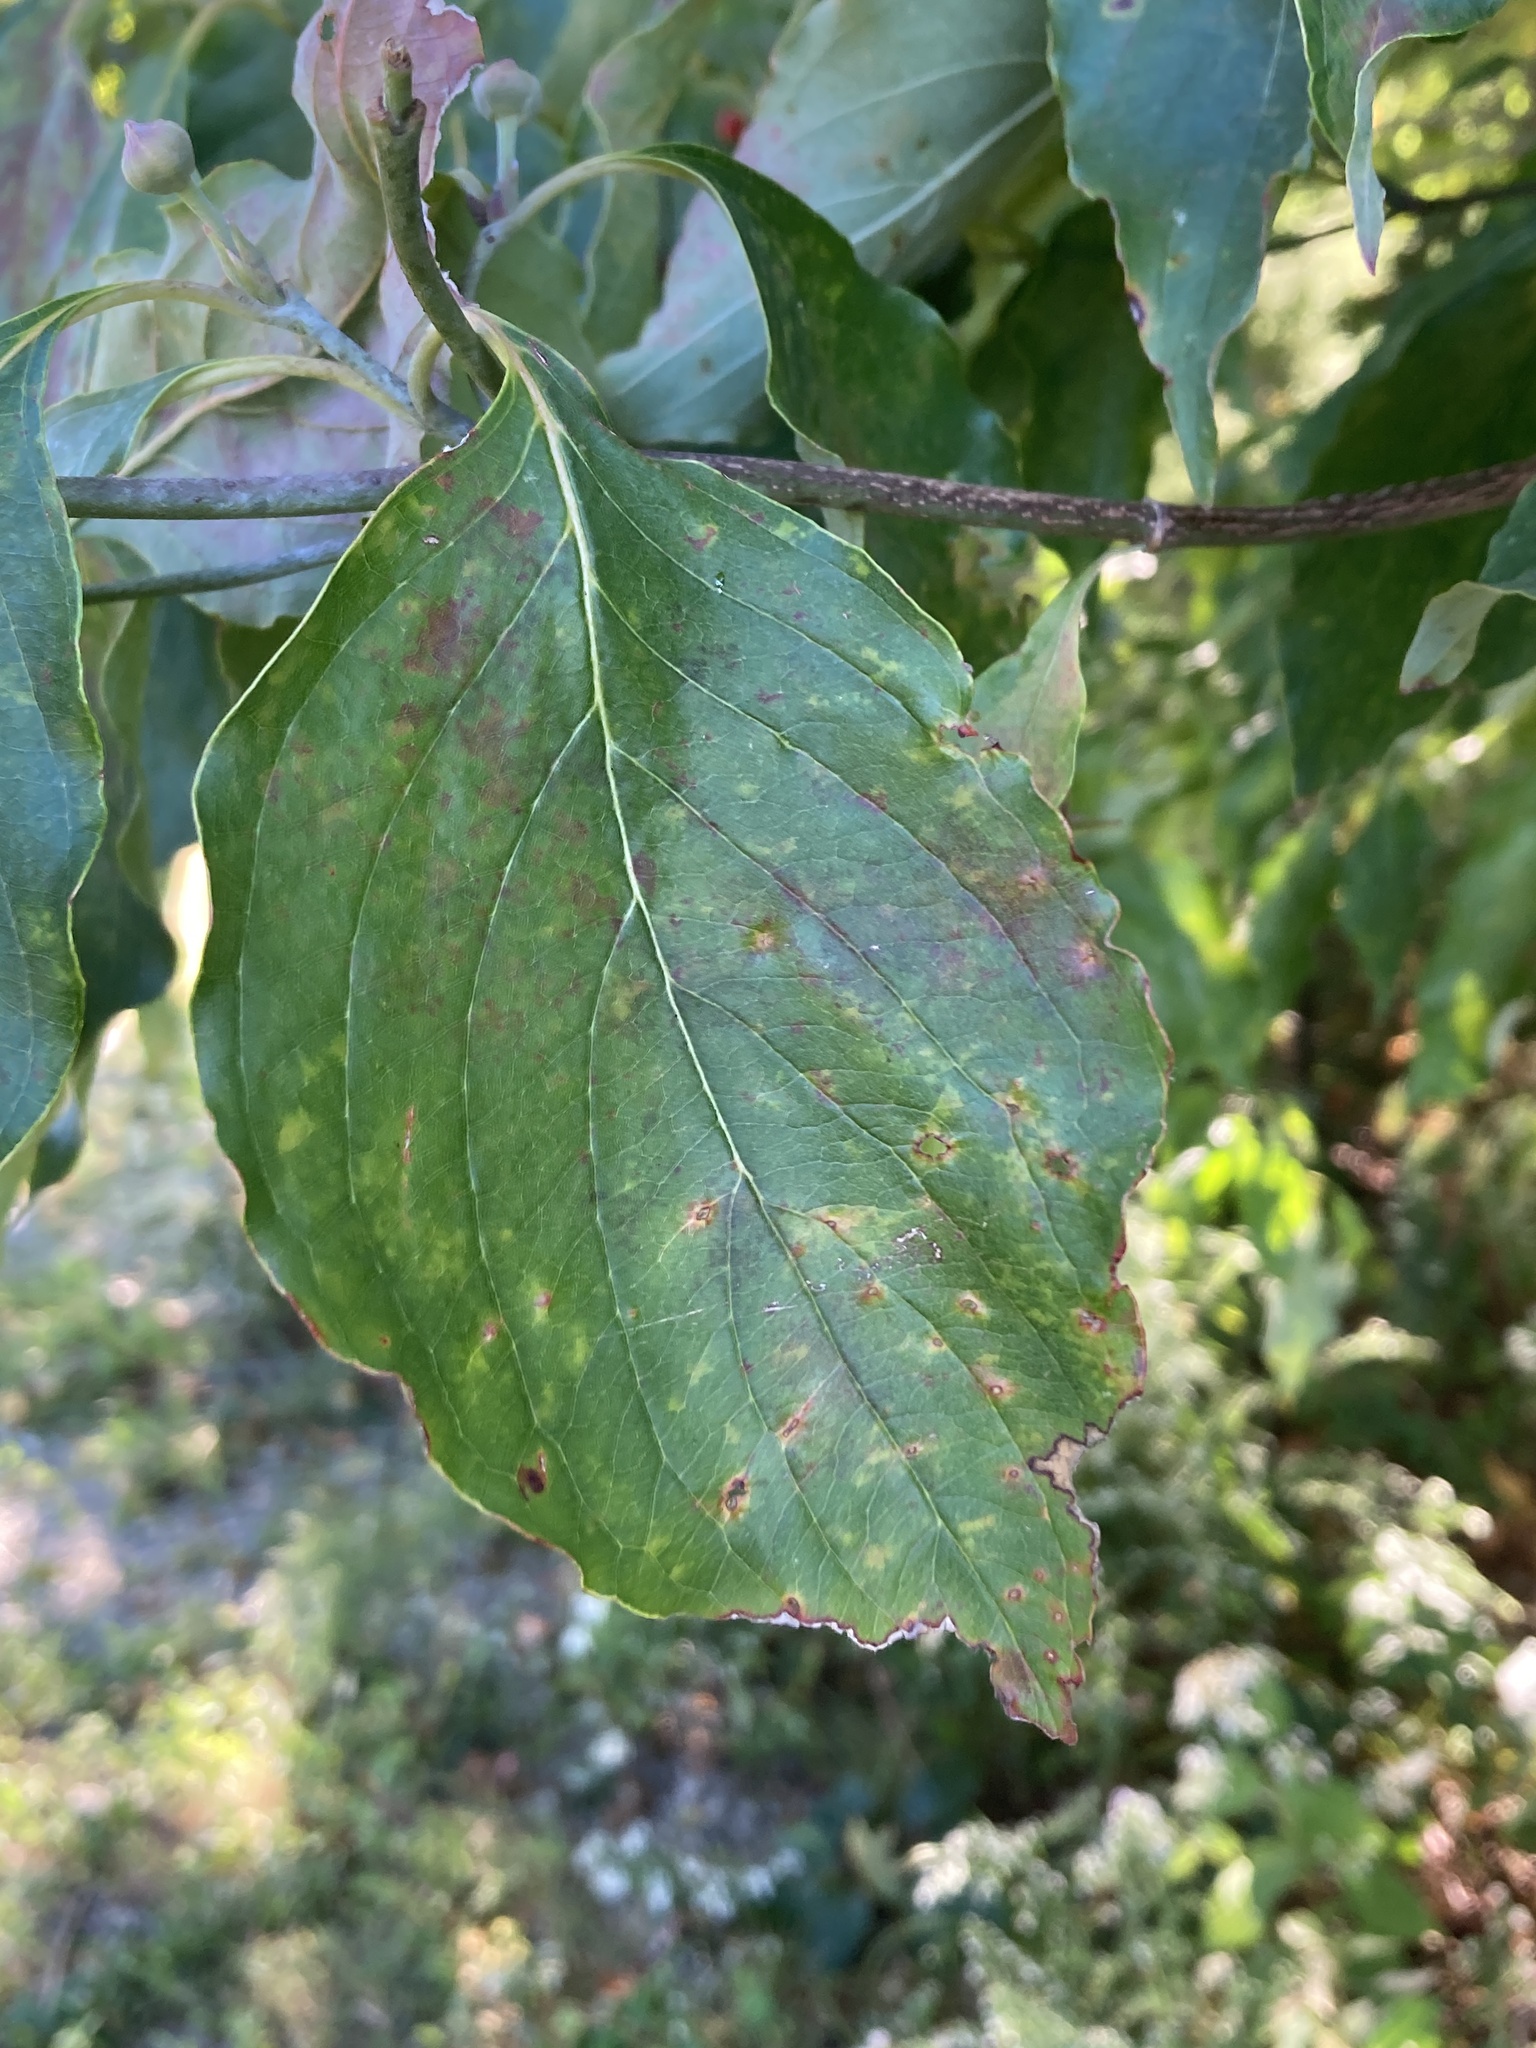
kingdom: Plantae
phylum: Tracheophyta
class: Magnoliopsida
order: Cornales
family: Cornaceae
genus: Cornus
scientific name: Cornus florida
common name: Flowering dogwood
